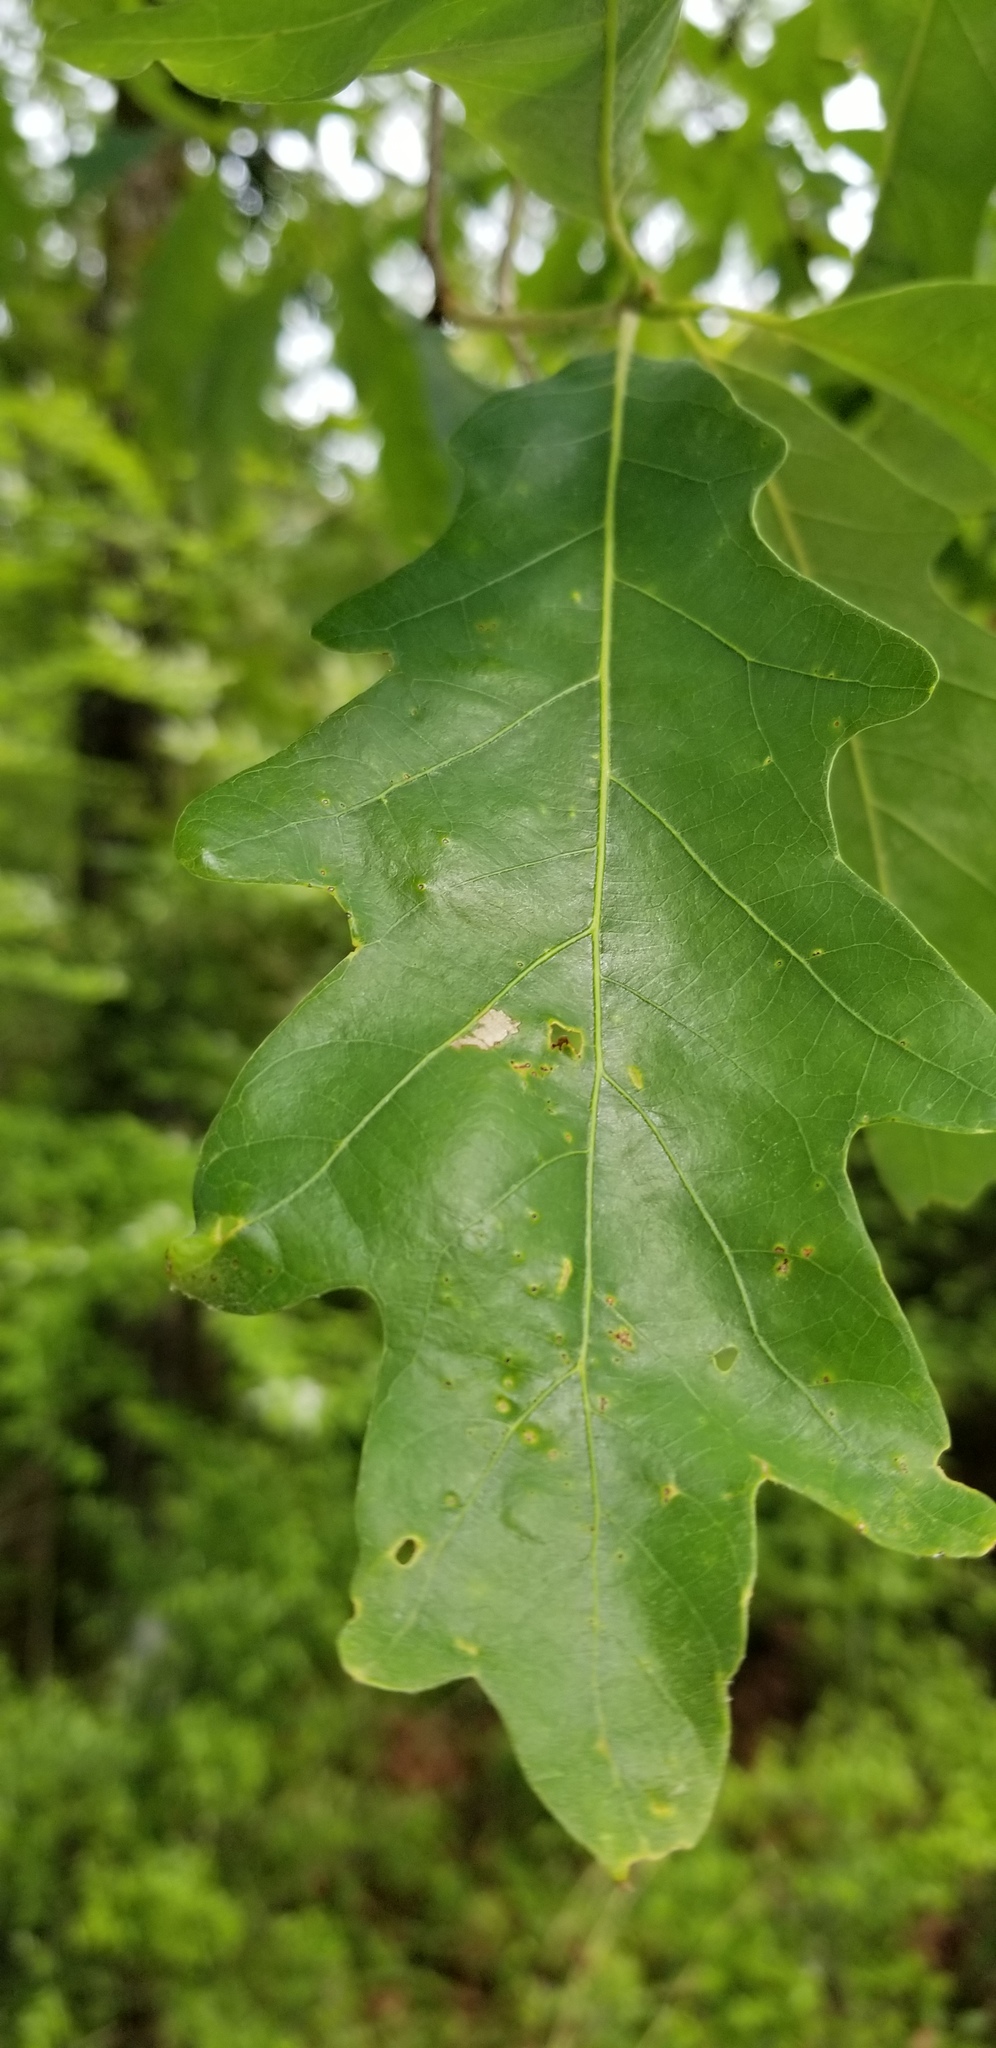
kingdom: Plantae
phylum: Tracheophyta
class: Magnoliopsida
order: Fagales
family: Fagaceae
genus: Quercus
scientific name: Quercus alba
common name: White oak
